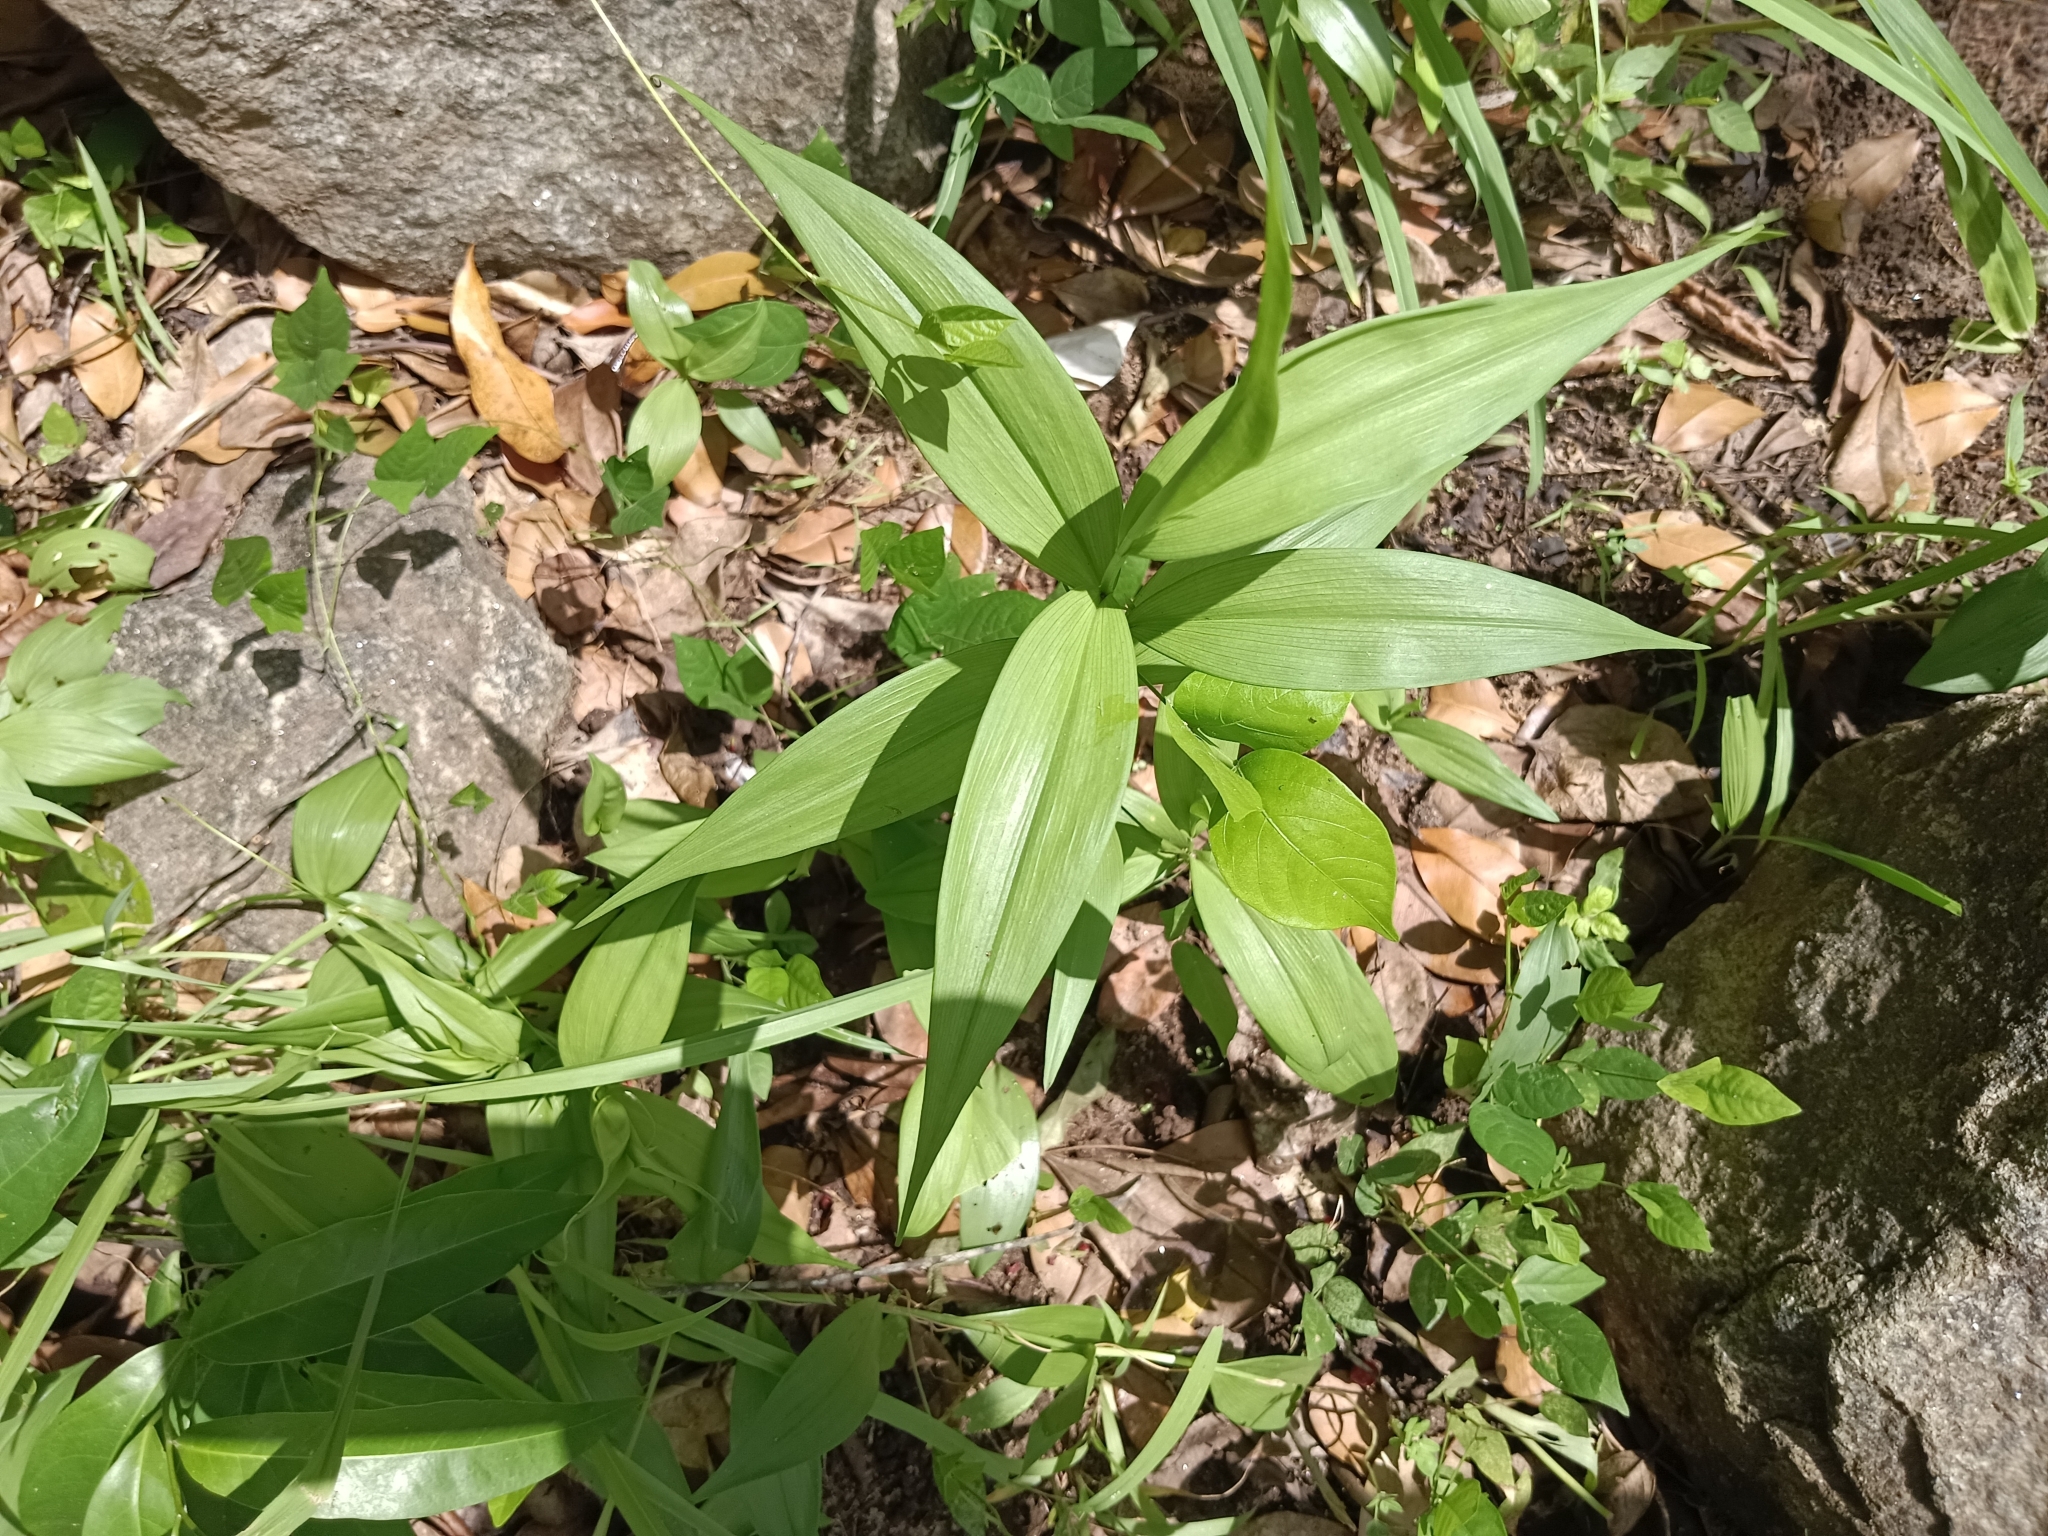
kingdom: Plantae
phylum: Tracheophyta
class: Liliopsida
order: Liliales
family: Colchicaceae
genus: Gloriosa
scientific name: Gloriosa superba
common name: Flame lily
